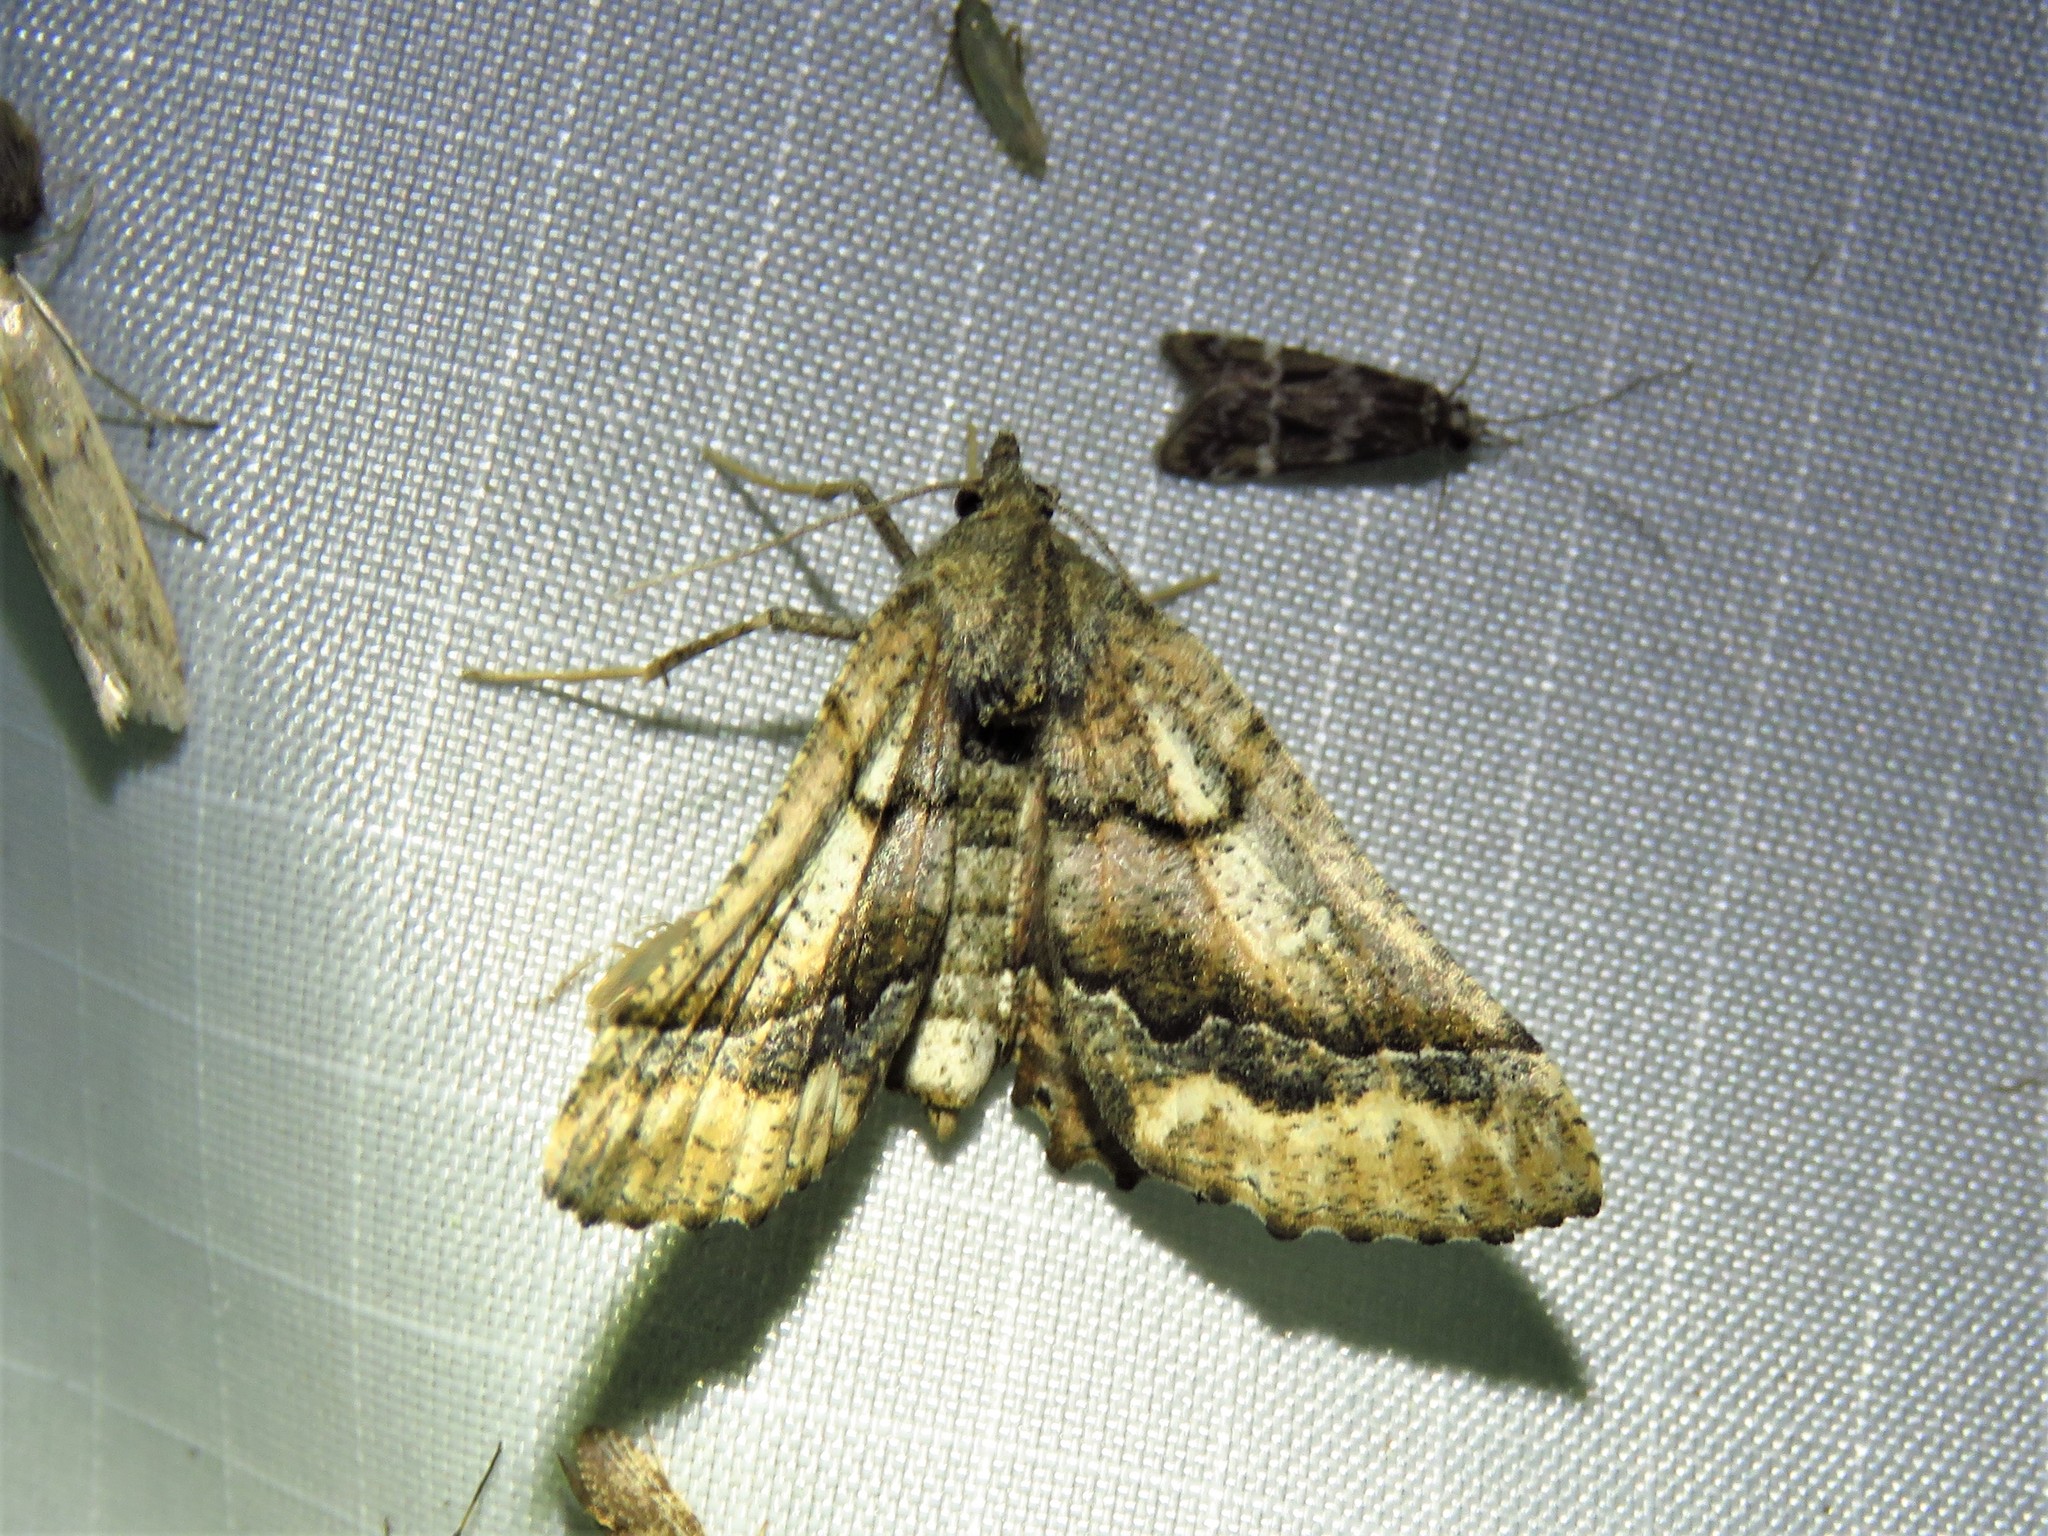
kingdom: Animalia
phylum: Arthropoda
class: Insecta
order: Lepidoptera
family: Geometridae
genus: Pero
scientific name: Pero meskaria
